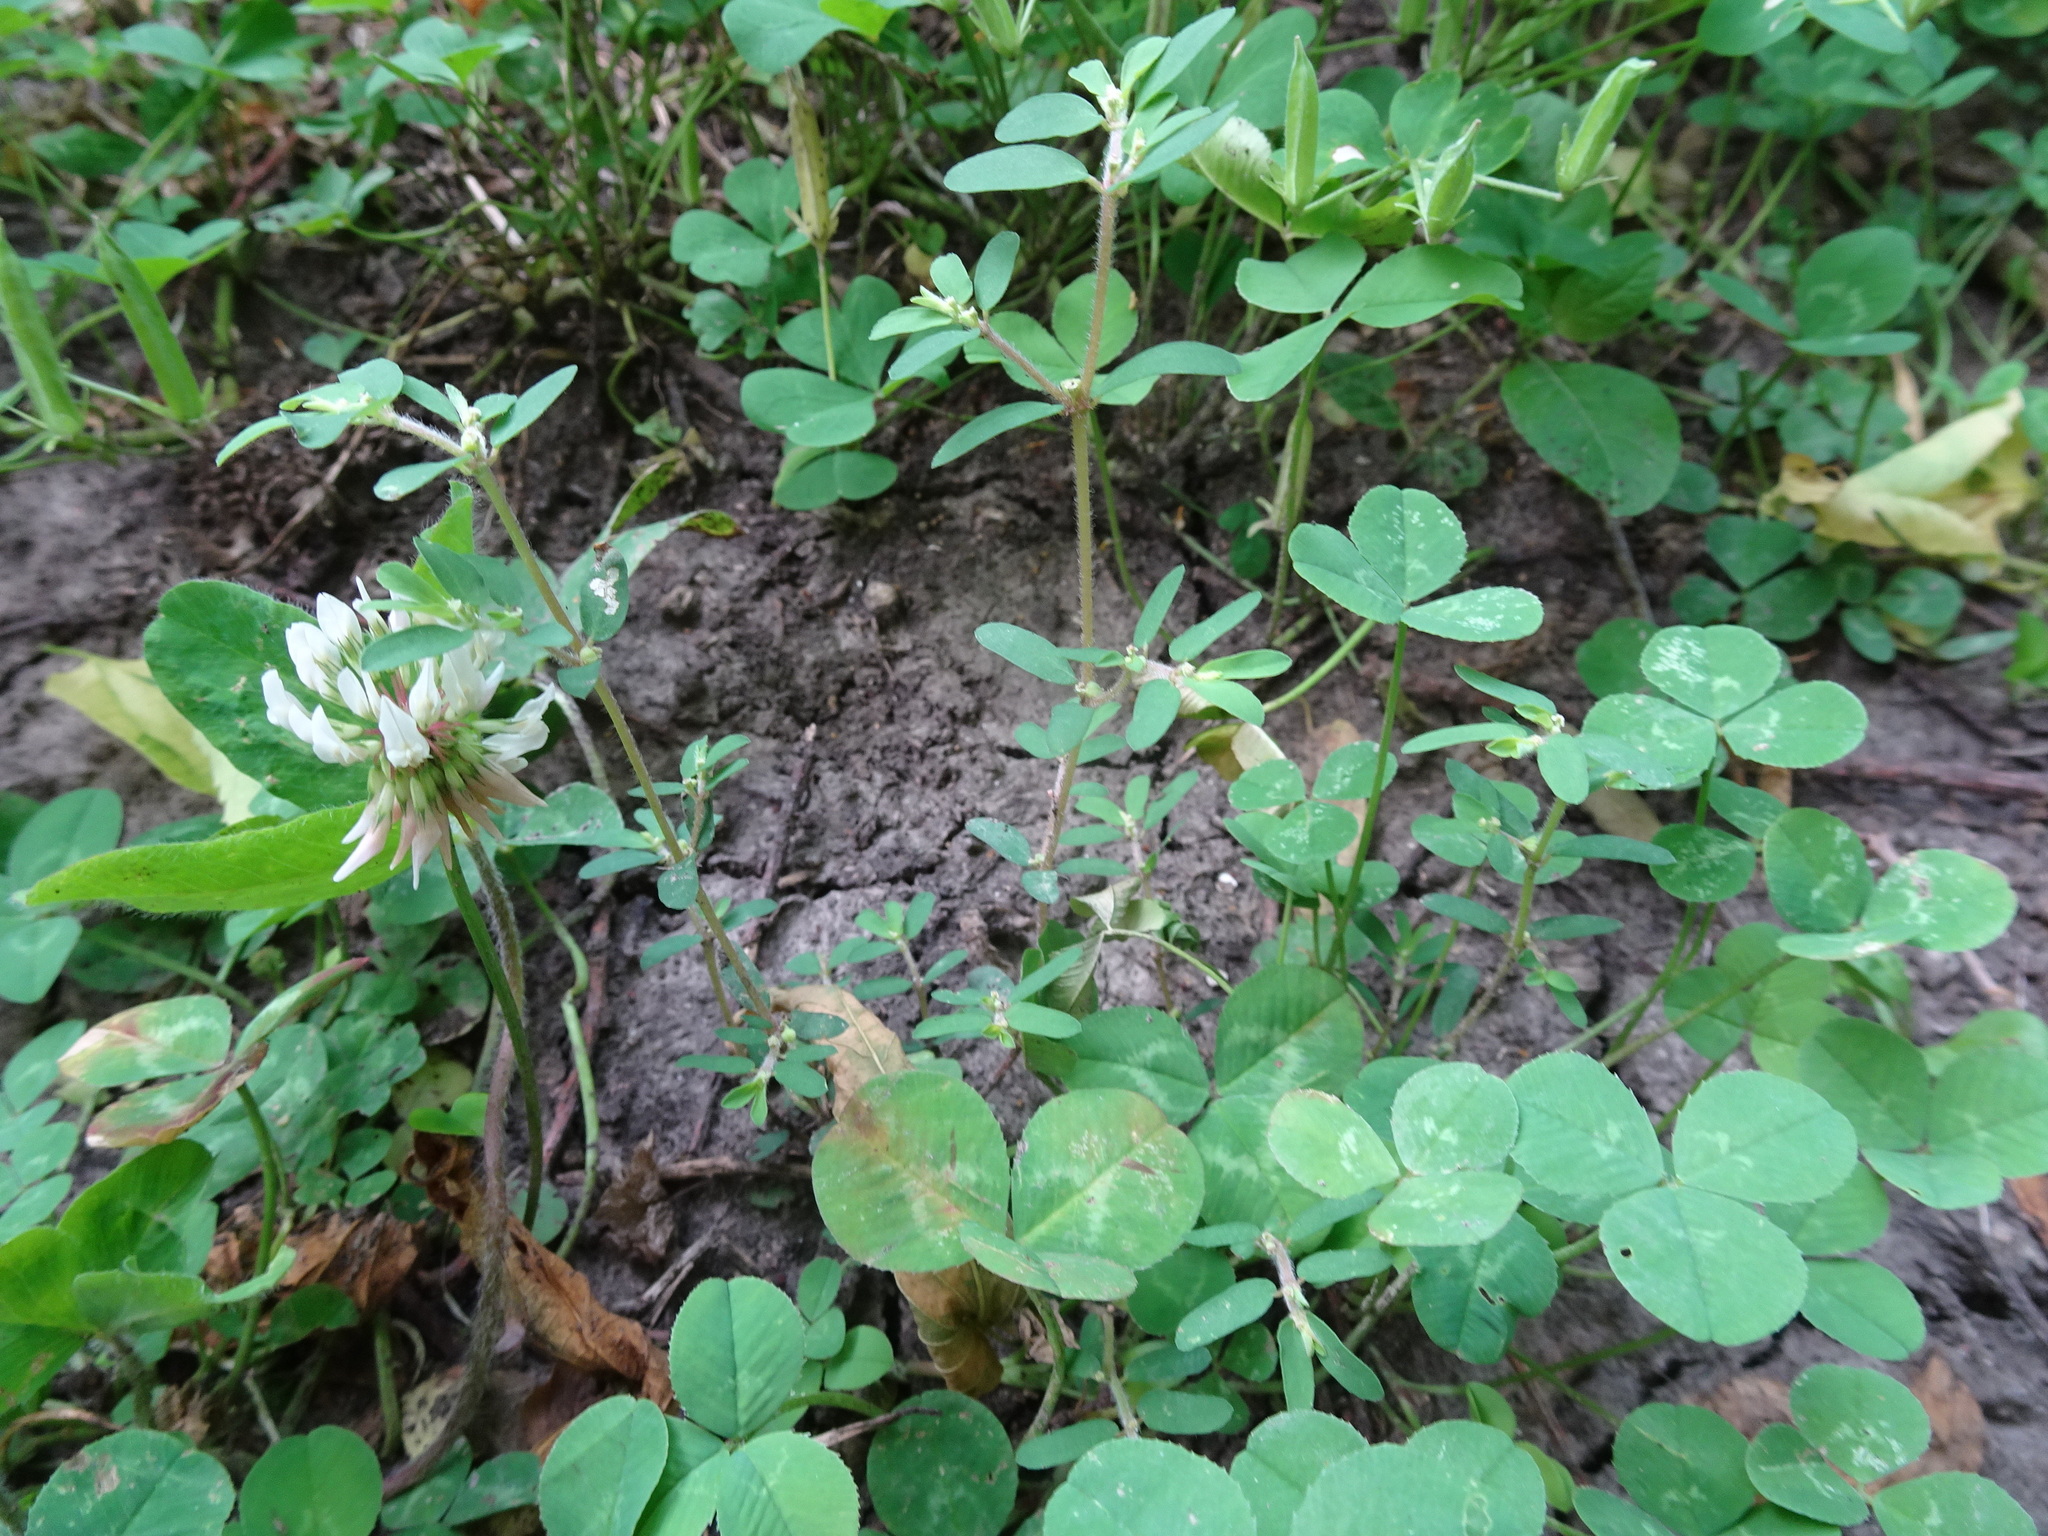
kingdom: Plantae
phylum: Tracheophyta
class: Magnoliopsida
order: Malpighiales
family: Euphorbiaceae
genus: Euphorbia
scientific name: Euphorbia maculata
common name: Spotted spurge
